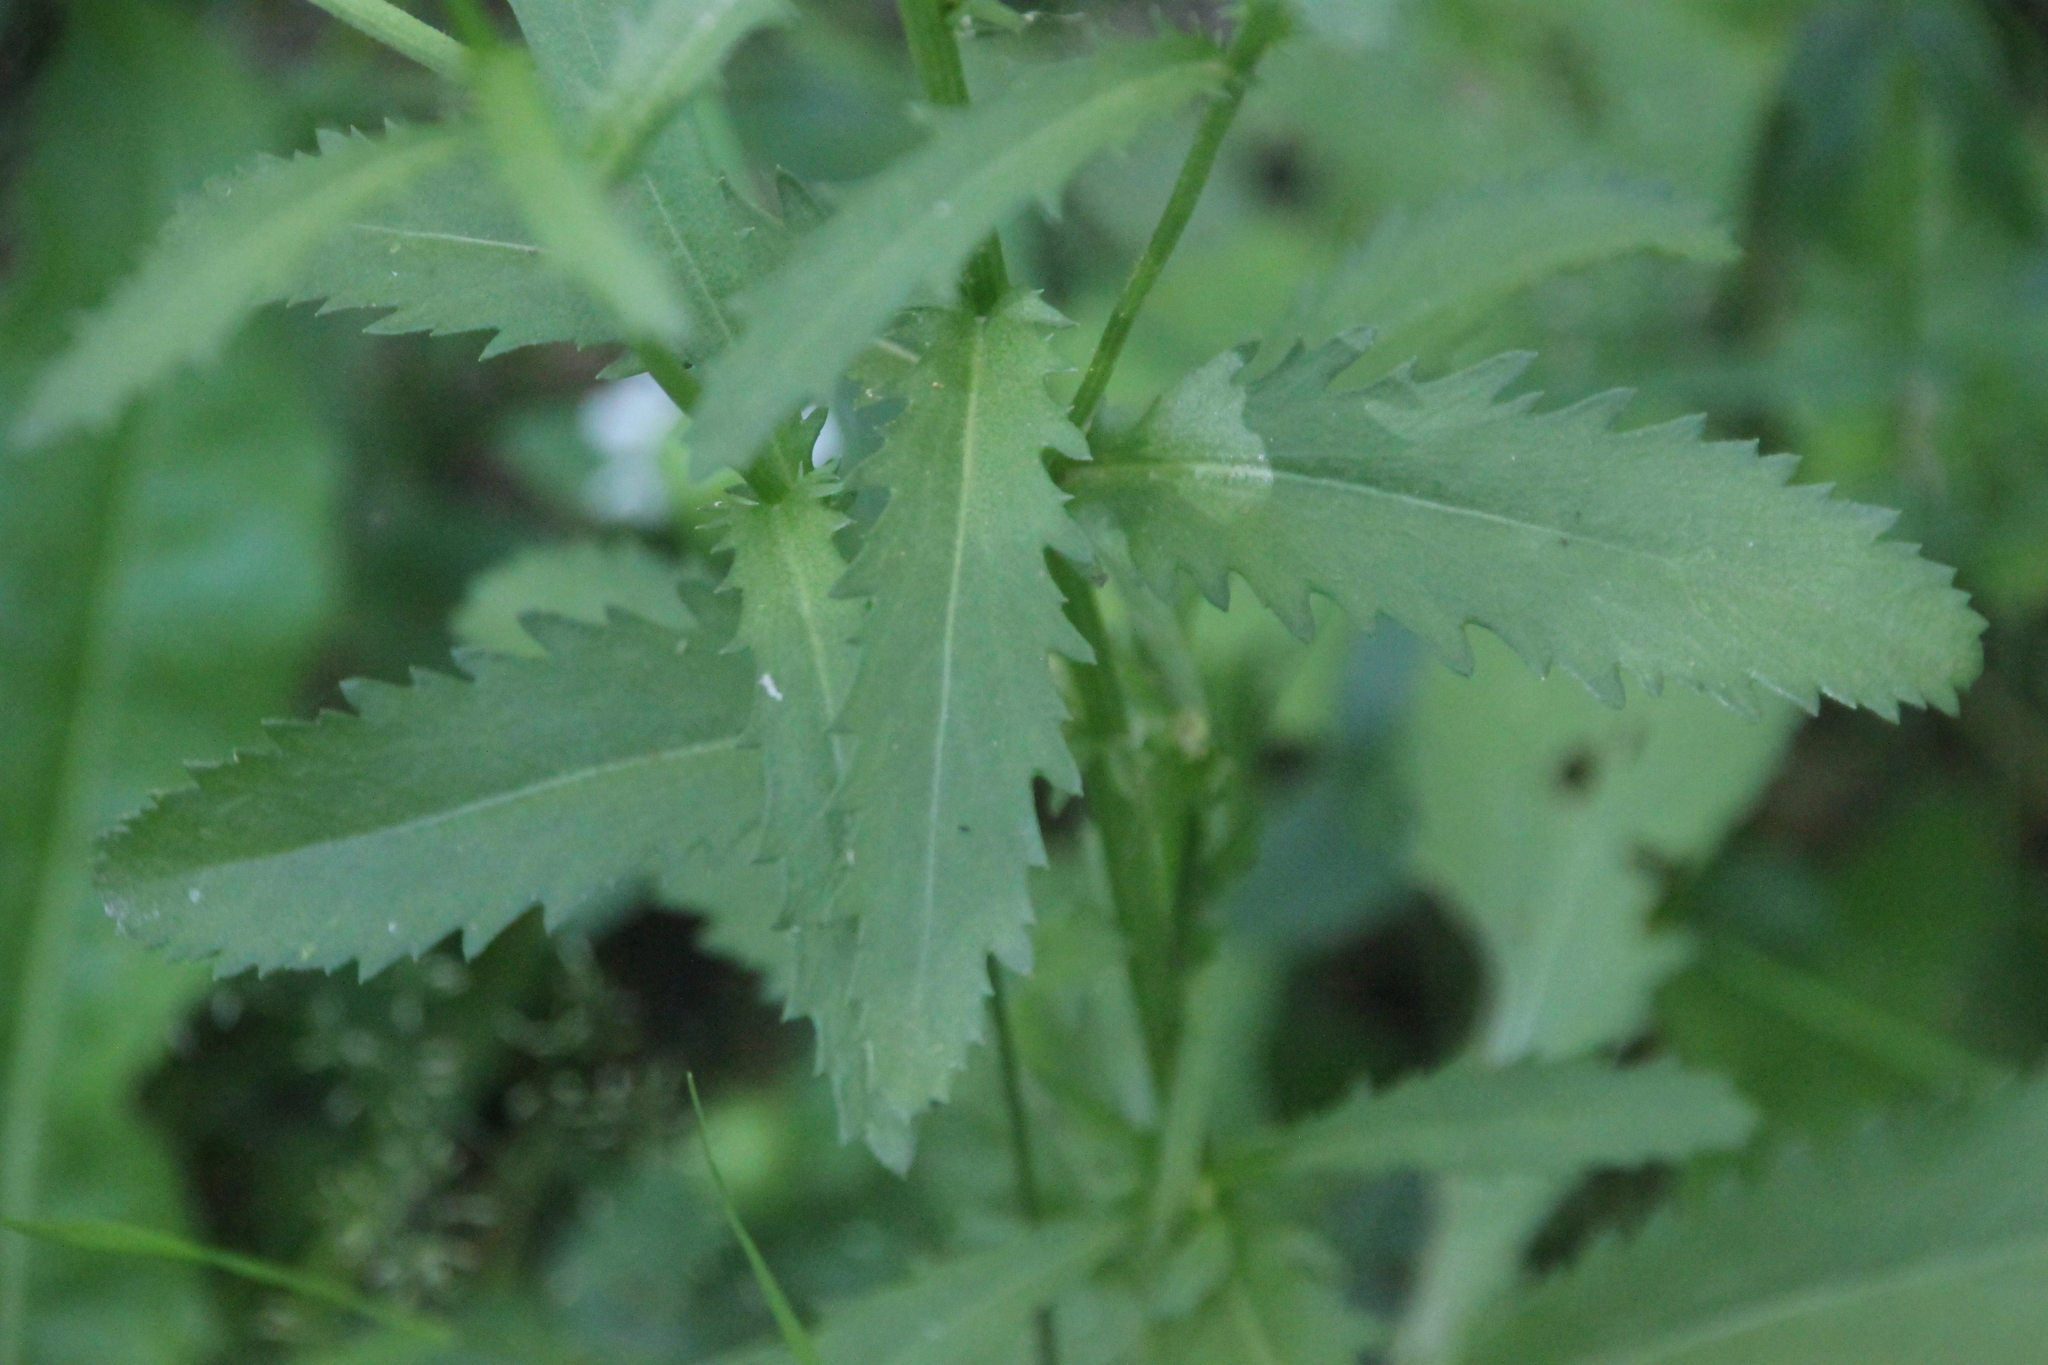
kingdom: Plantae
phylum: Tracheophyta
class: Magnoliopsida
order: Asterales
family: Asteraceae
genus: Leucanthemum
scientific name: Leucanthemum vulgare
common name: Oxeye daisy
